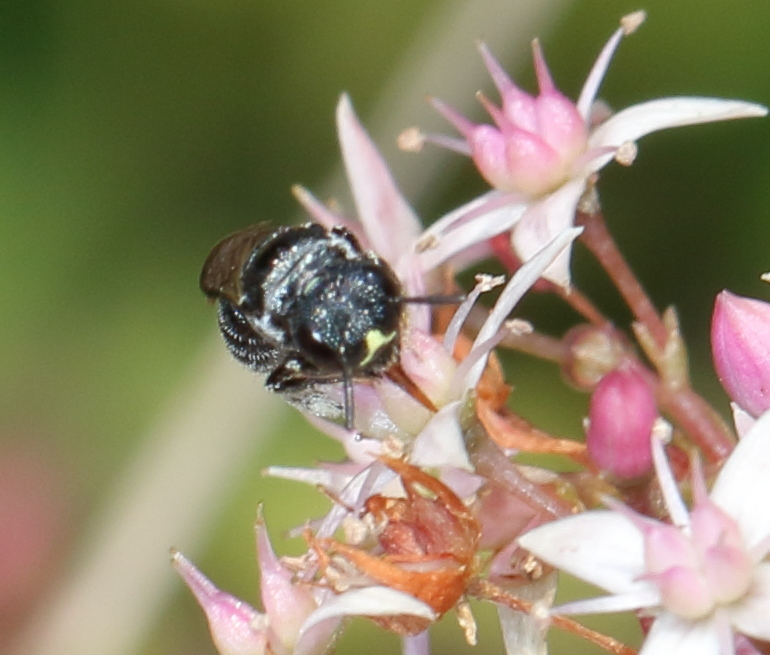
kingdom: Animalia
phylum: Arthropoda
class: Insecta
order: Hymenoptera
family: Apidae
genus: Ceratina
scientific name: Ceratina moerenhouti
